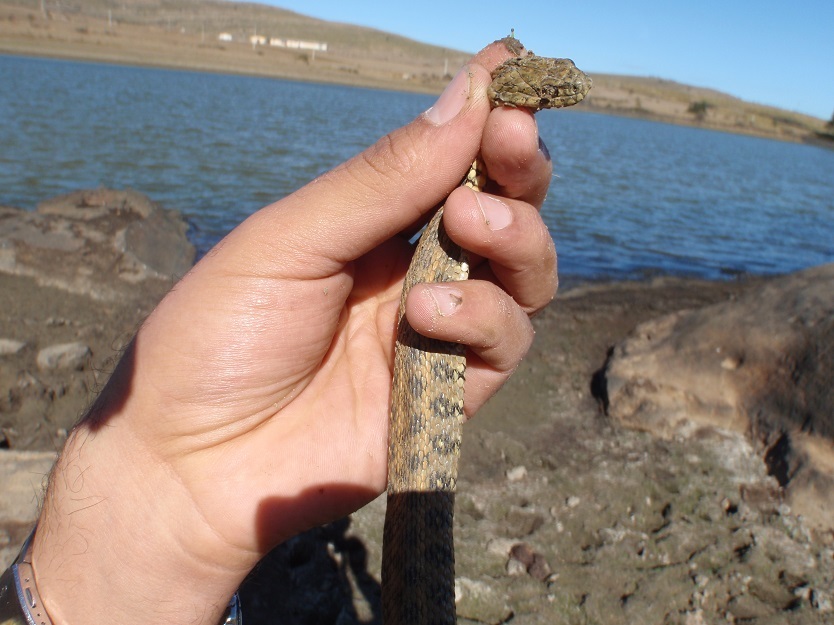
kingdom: Animalia
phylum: Chordata
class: Squamata
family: Colubridae
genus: Natrix
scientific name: Natrix maura
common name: Viperine water snake
